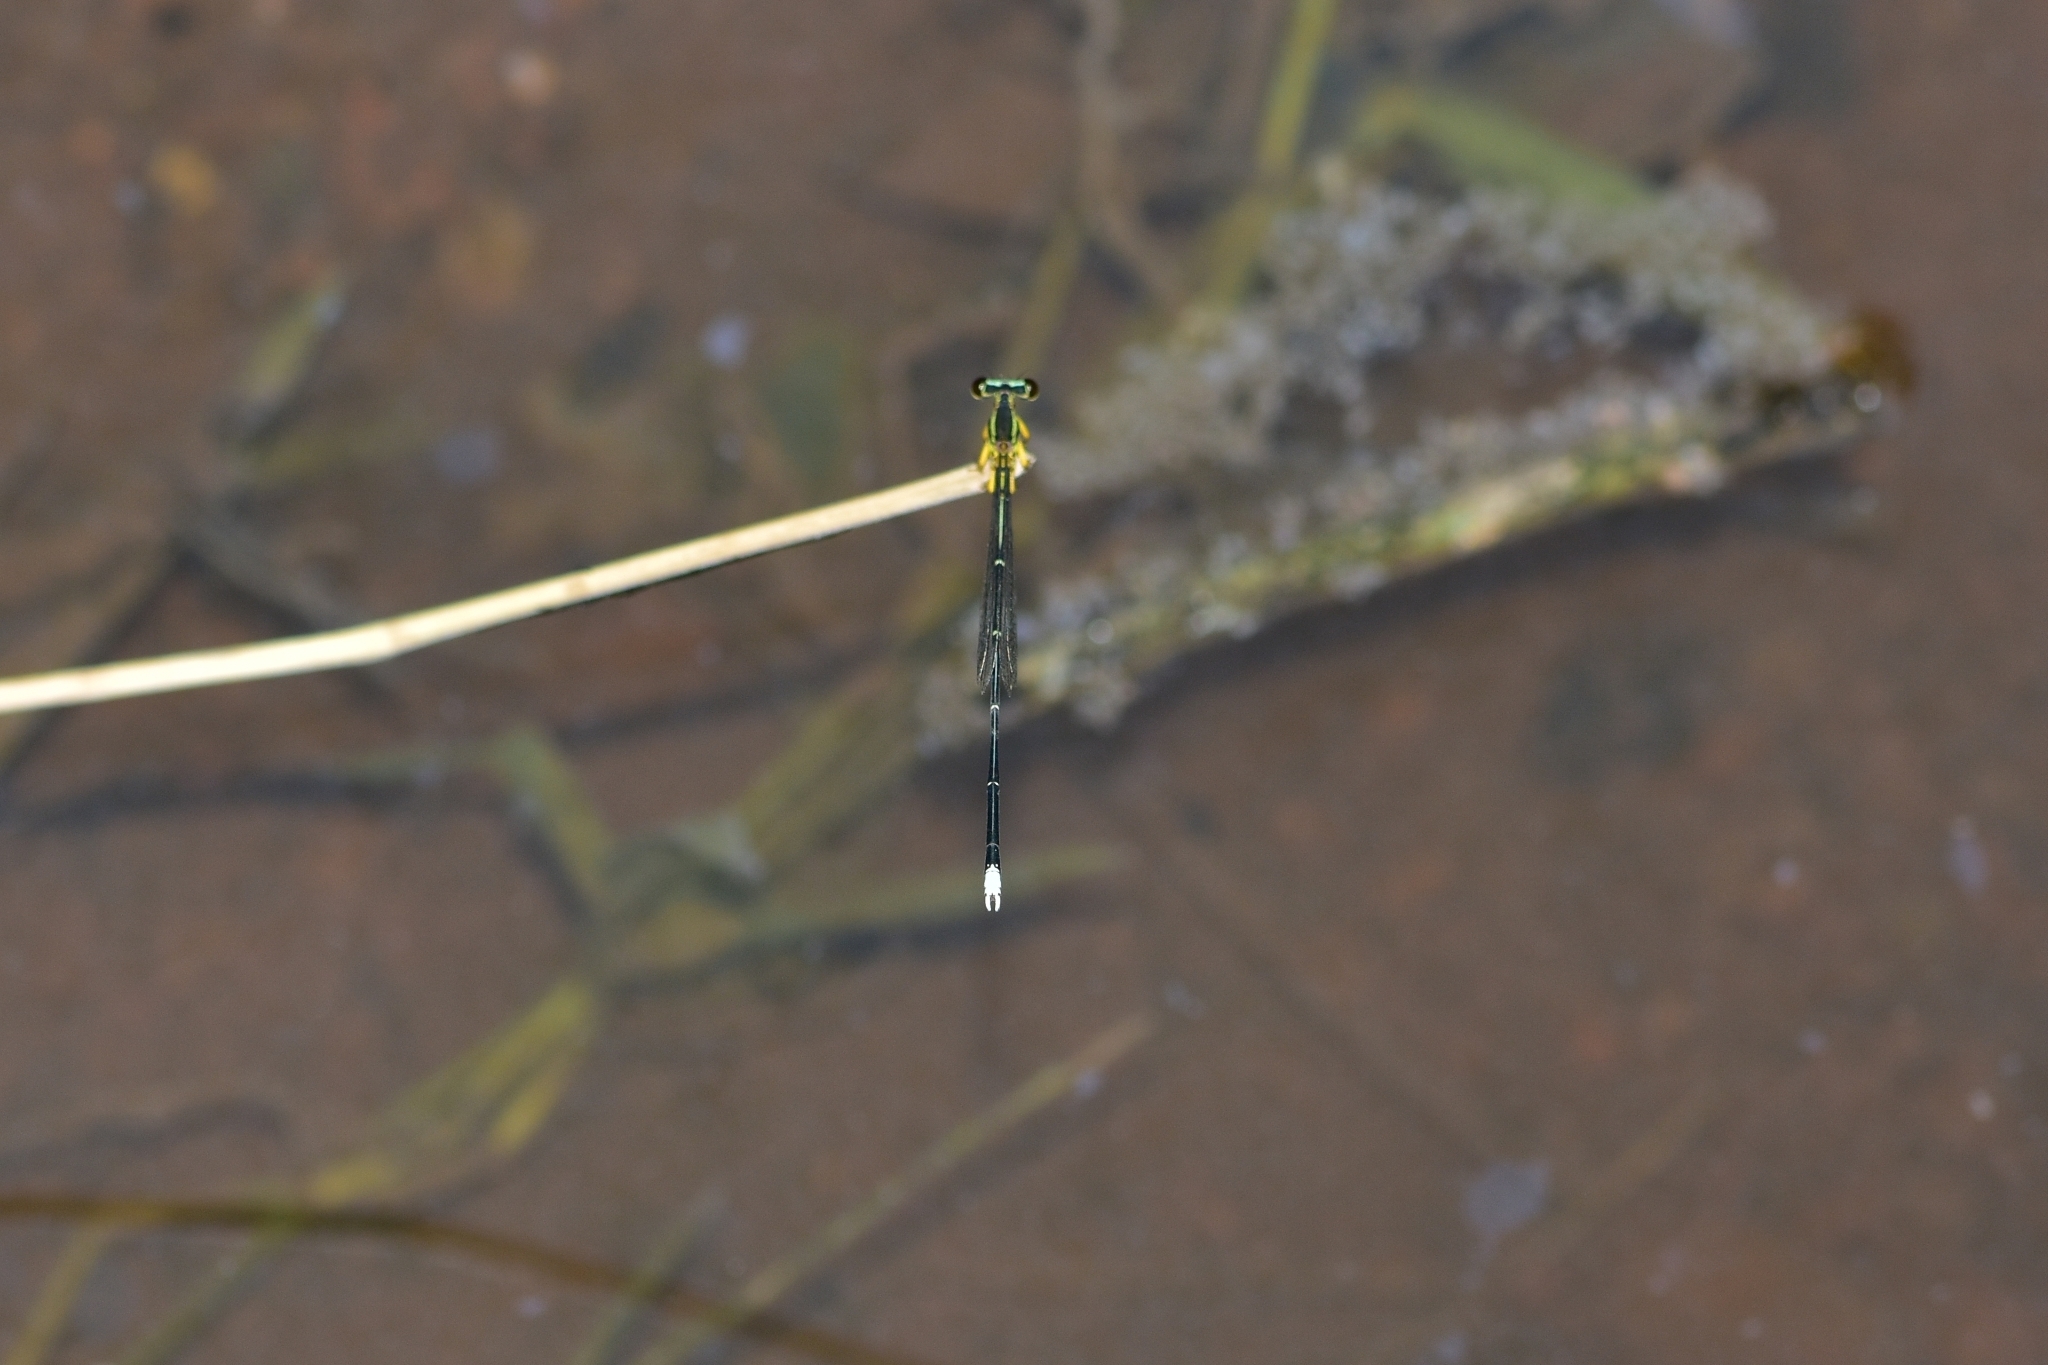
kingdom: Animalia
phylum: Arthropoda
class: Insecta
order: Odonata
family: Platycnemididae
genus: Copera
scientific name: Copera marginipes
